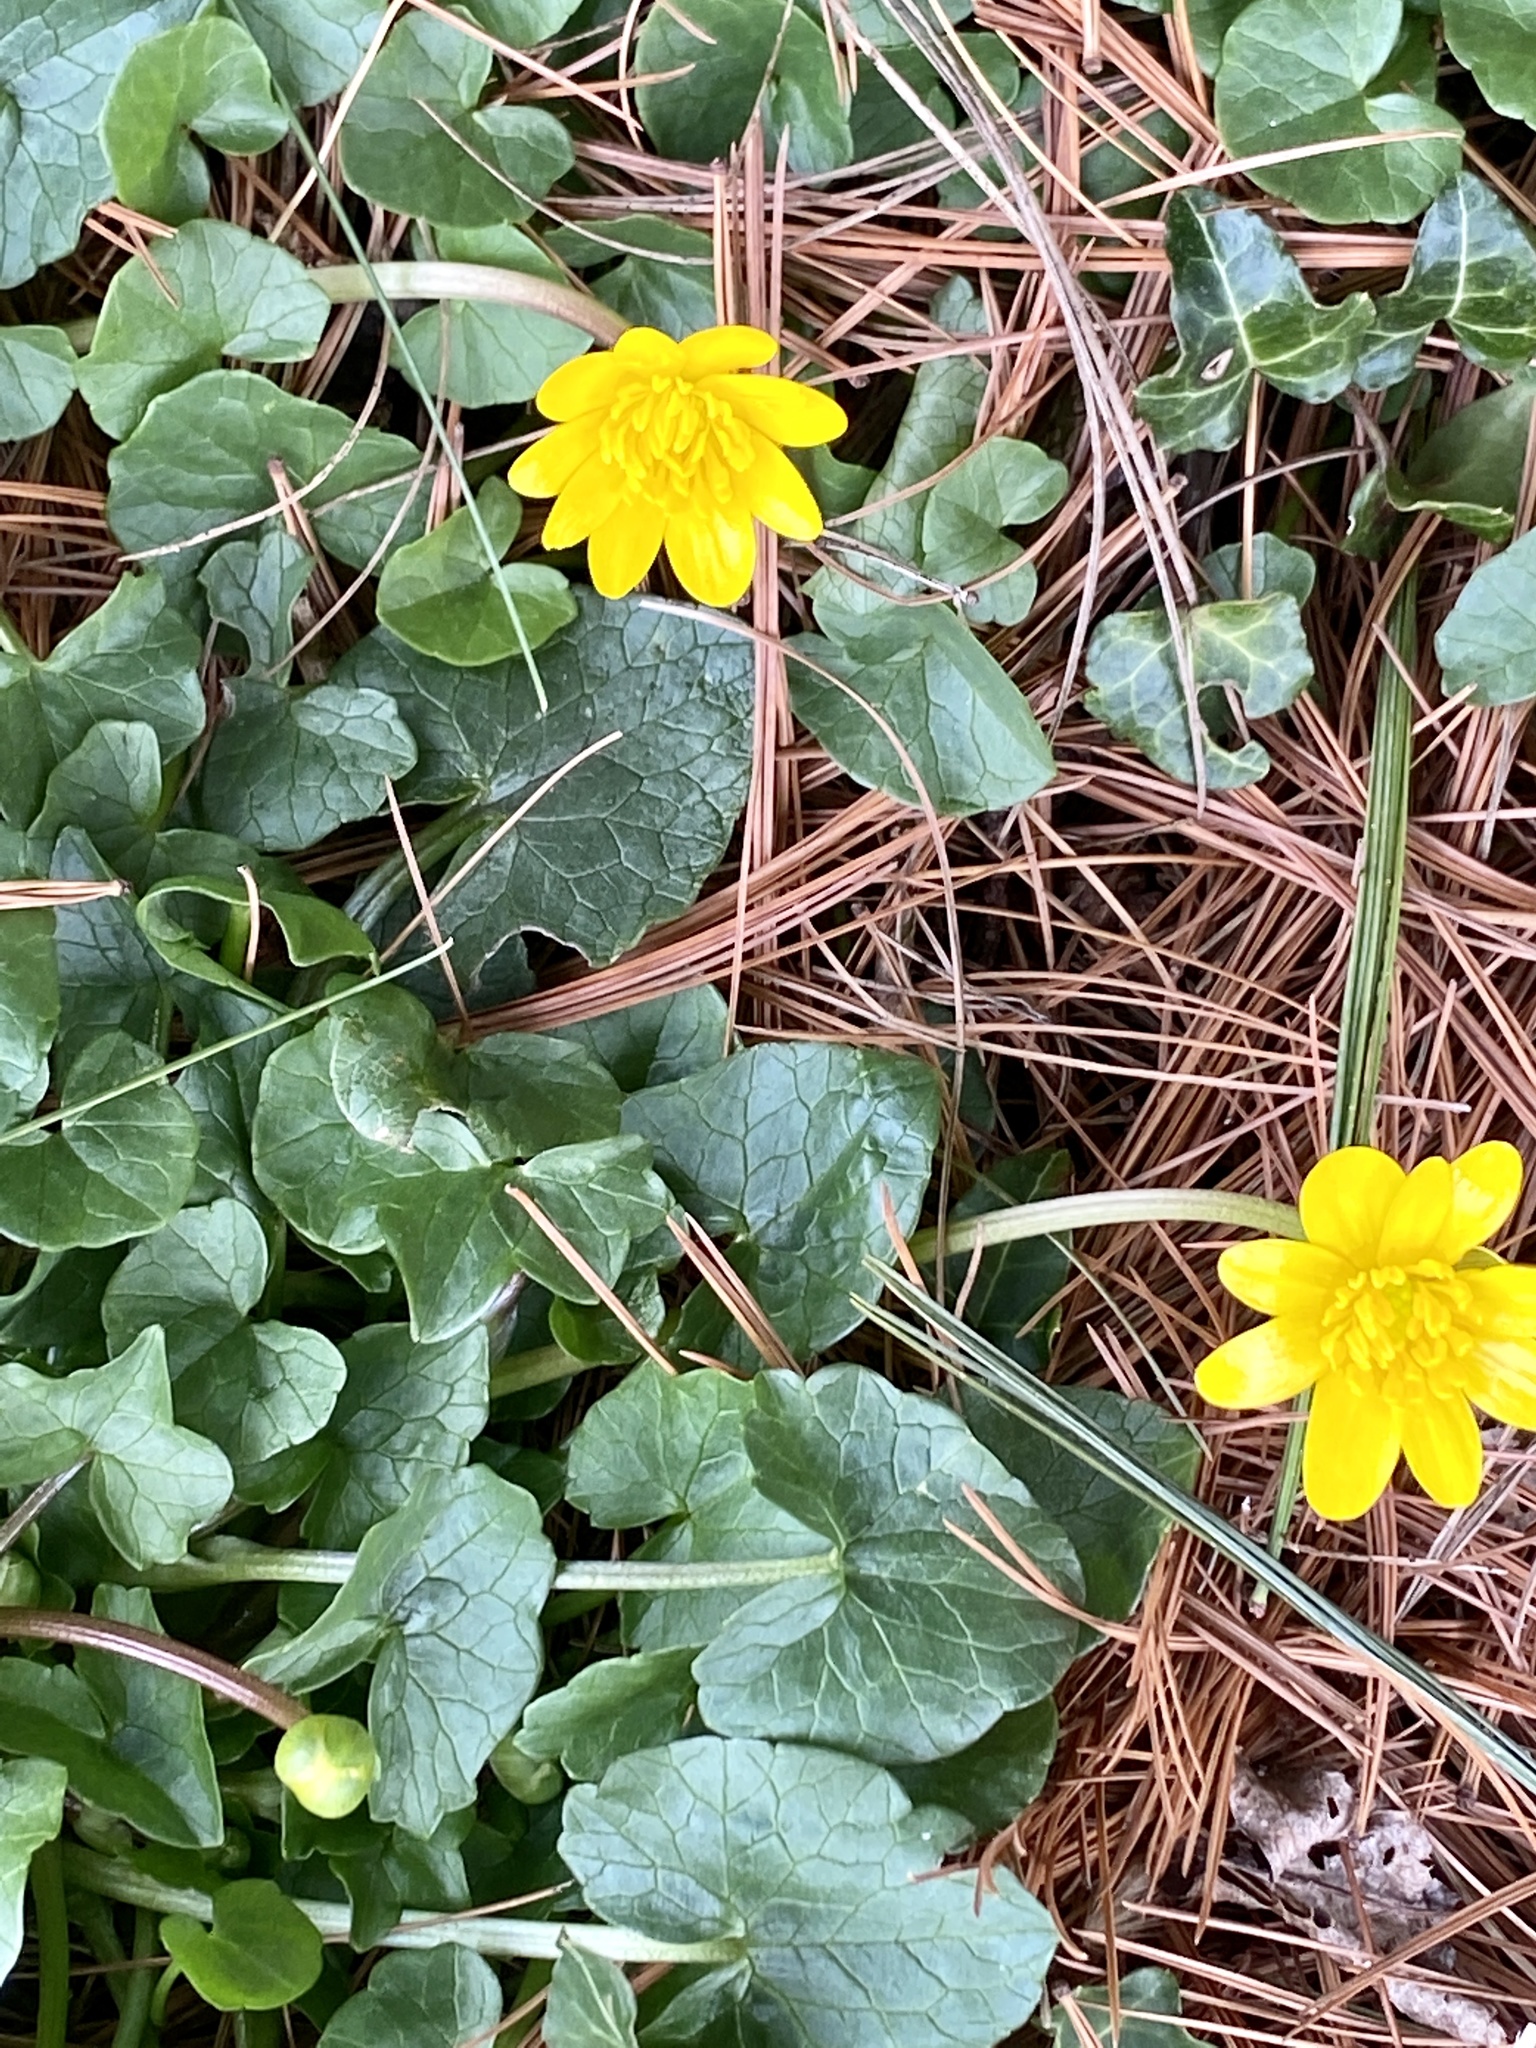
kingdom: Plantae
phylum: Tracheophyta
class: Magnoliopsida
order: Ranunculales
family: Ranunculaceae
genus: Ficaria
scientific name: Ficaria verna
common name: Lesser celandine
